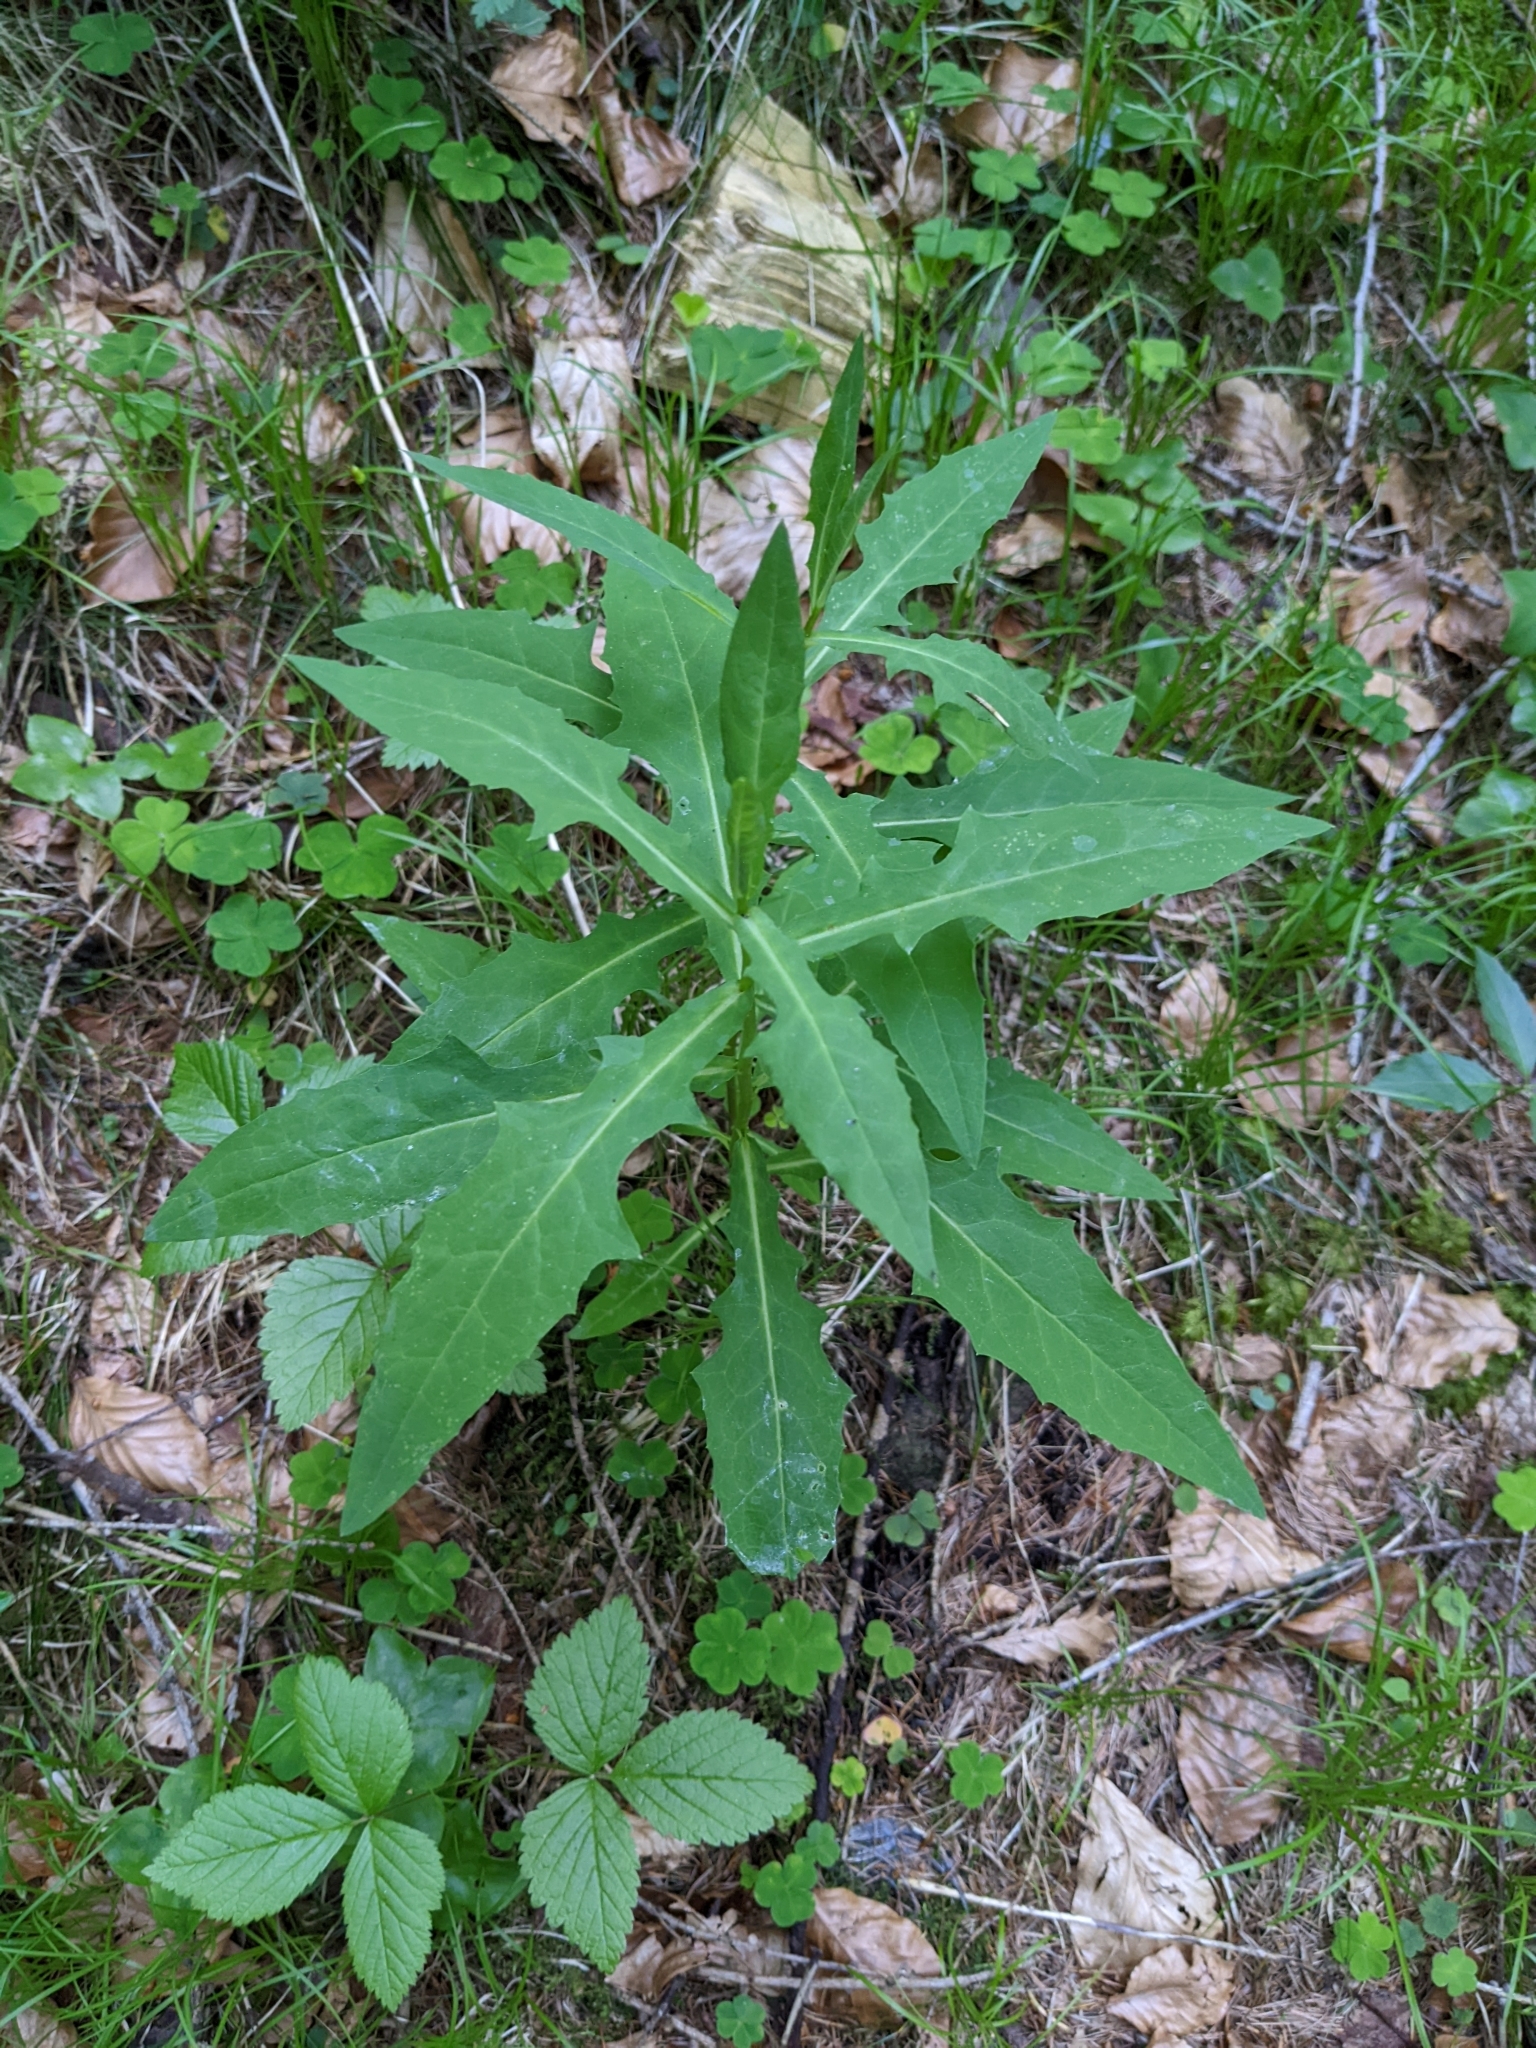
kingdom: Plantae
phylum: Tracheophyta
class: Magnoliopsida
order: Asterales
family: Asteraceae
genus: Prenanthes
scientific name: Prenanthes purpurea
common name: Purple lettuce
